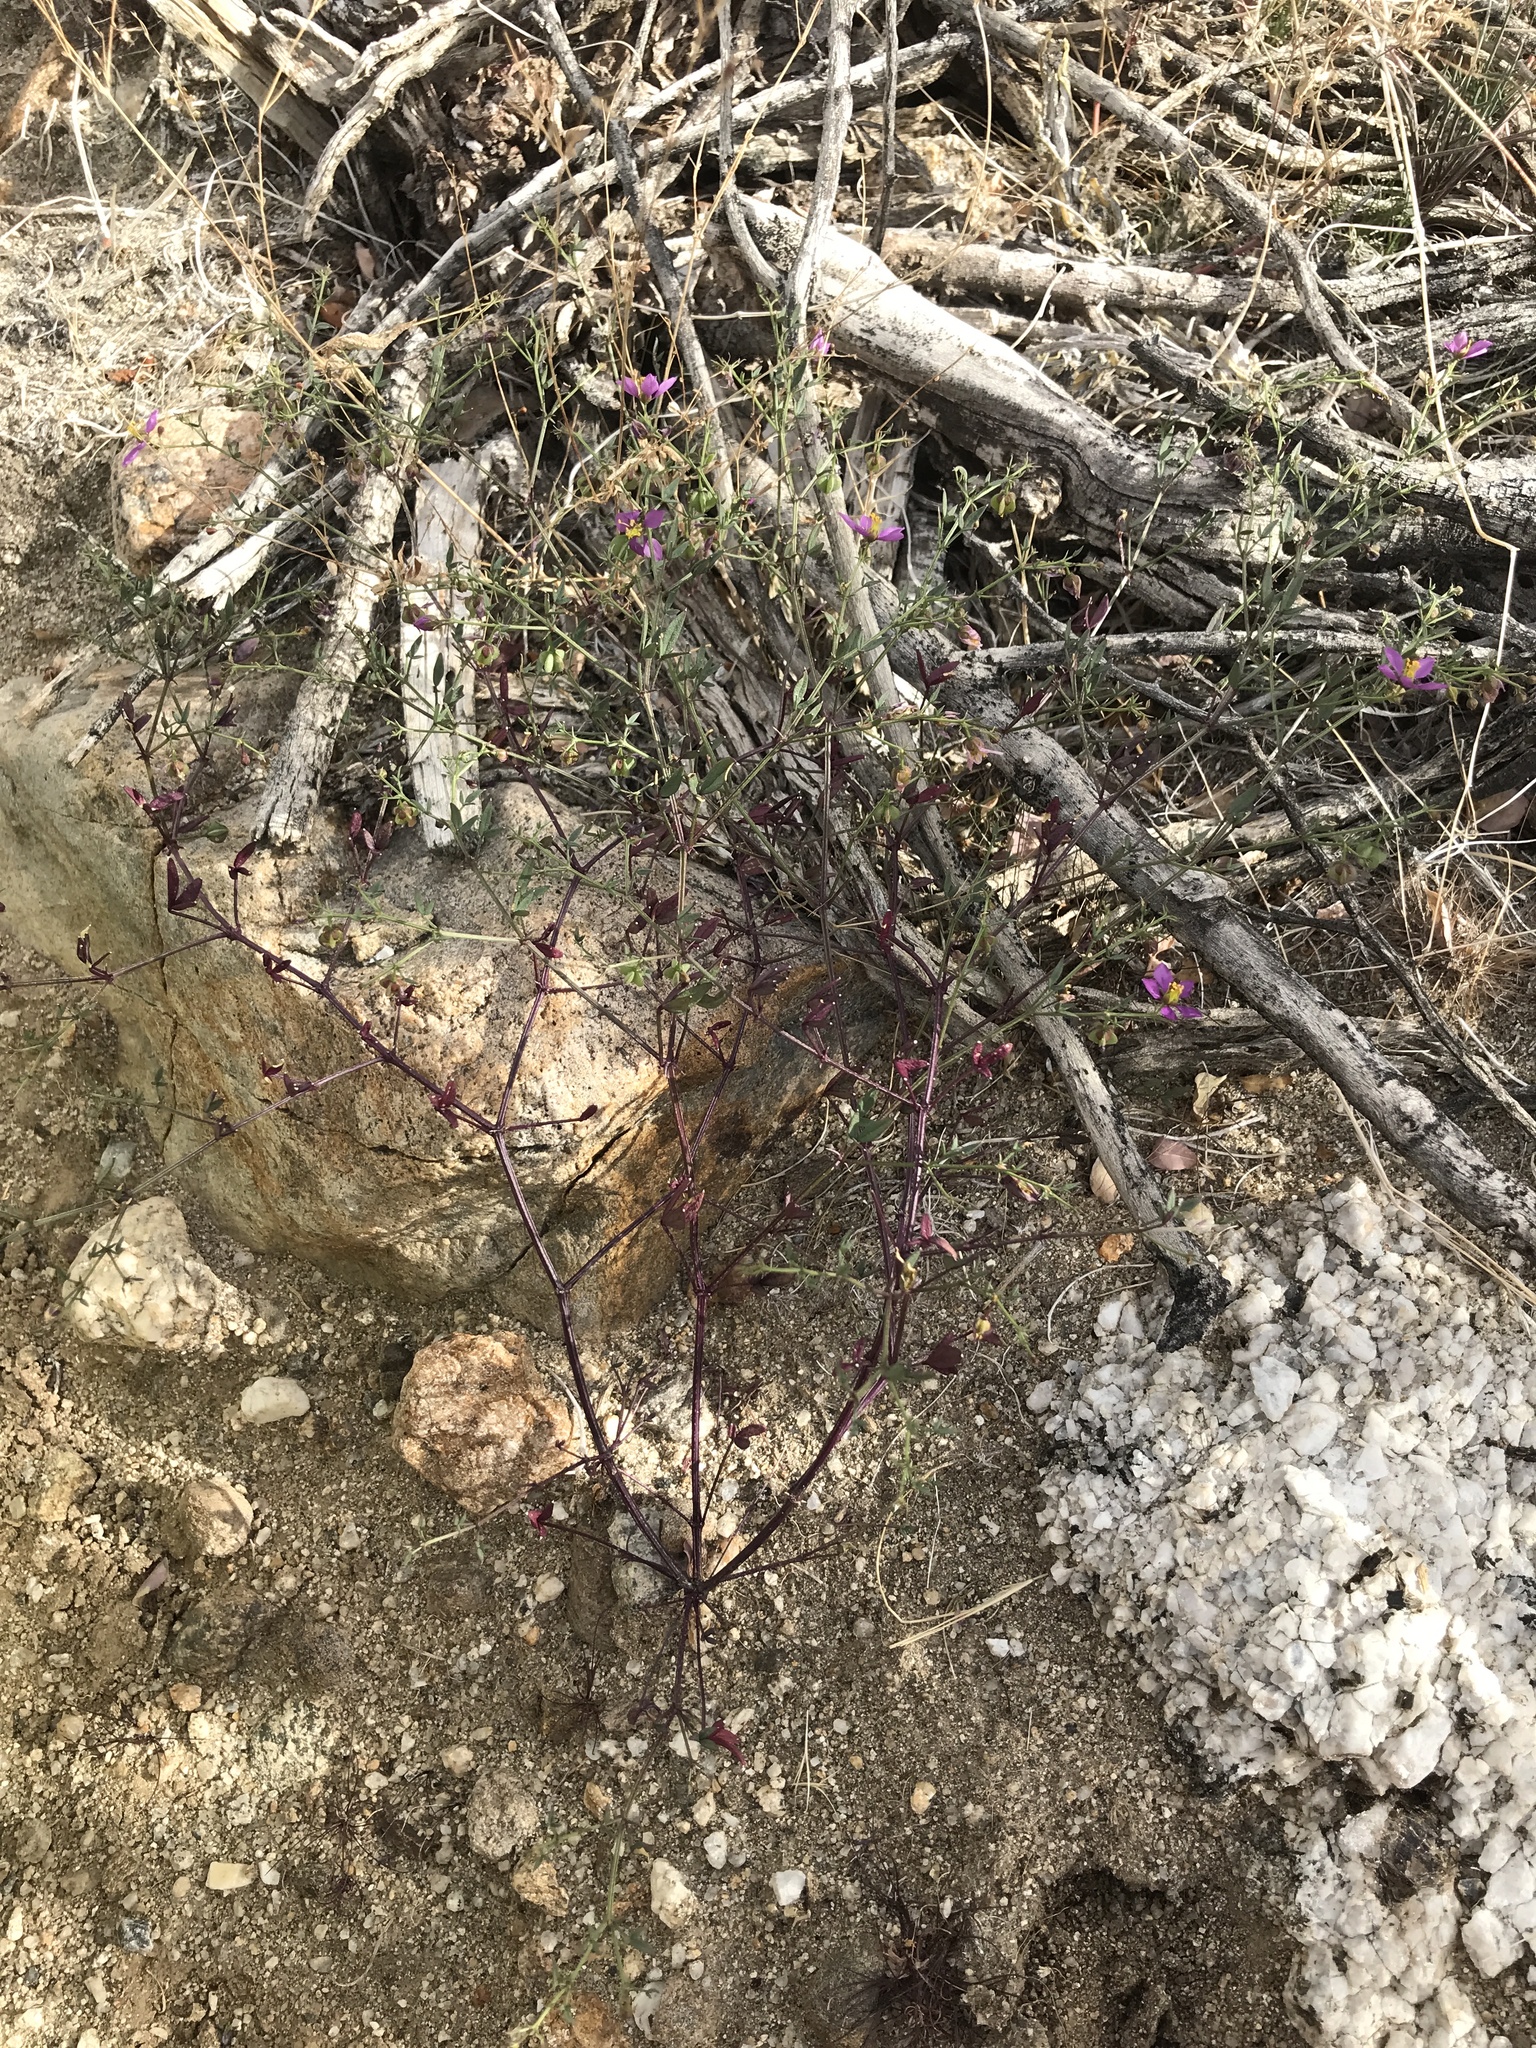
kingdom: Plantae
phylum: Tracheophyta
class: Magnoliopsida
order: Zygophyllales
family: Zygophyllaceae
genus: Fagonia
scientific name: Fagonia laevis
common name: California fagonbush
